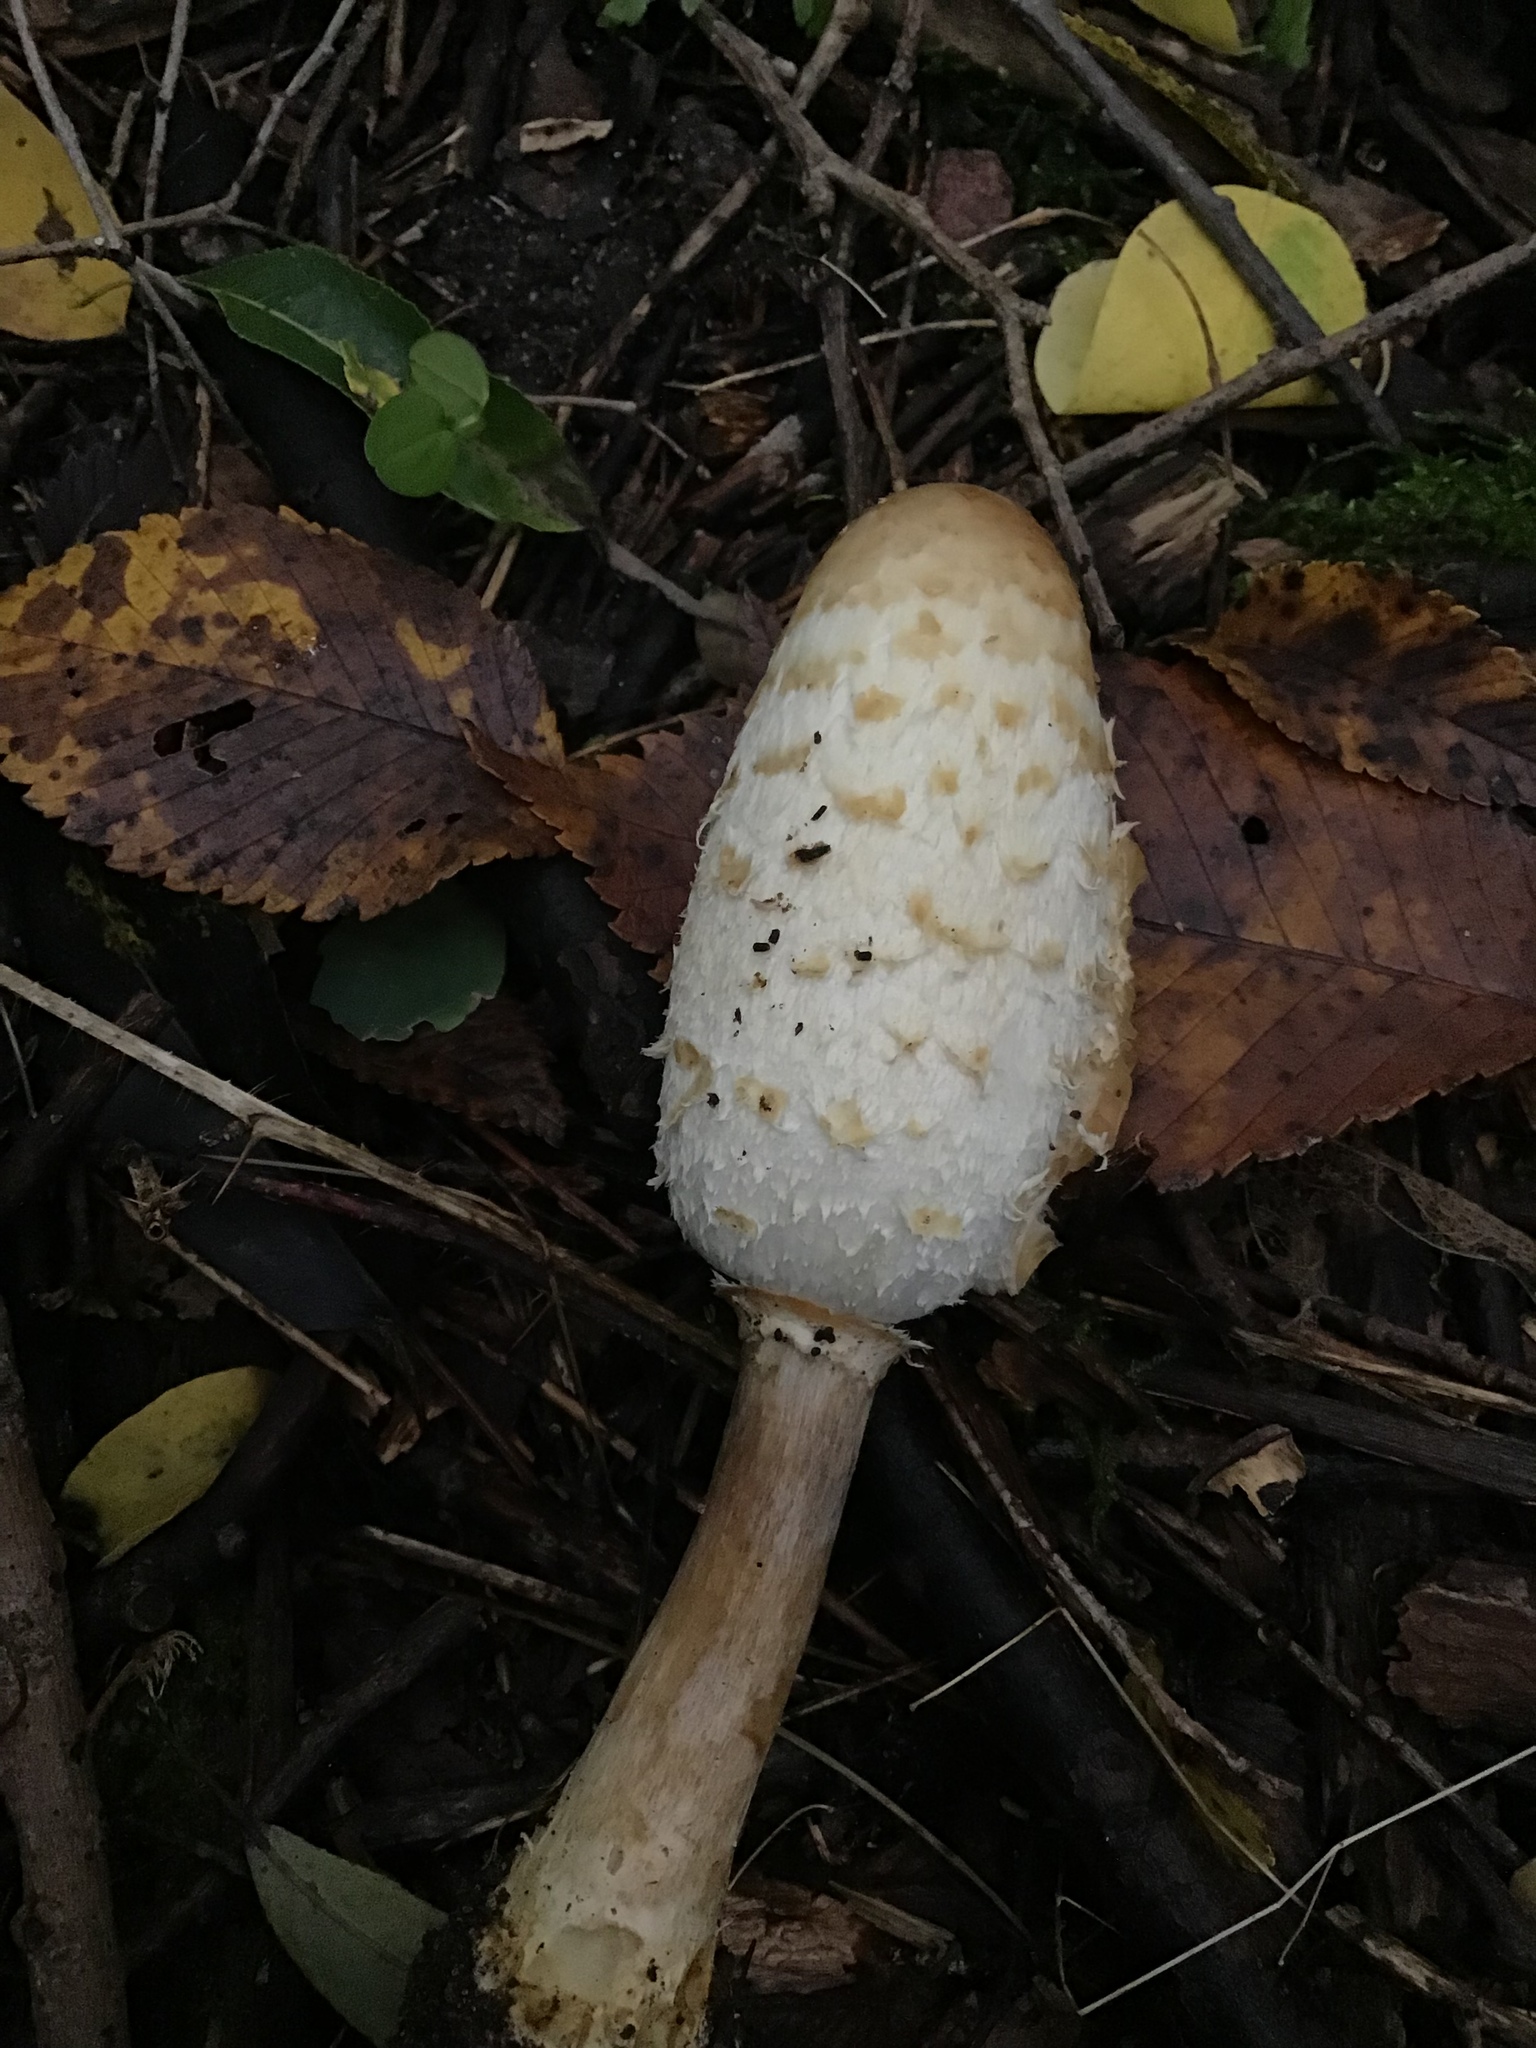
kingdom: Fungi
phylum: Basidiomycota
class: Agaricomycetes
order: Agaricales
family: Agaricaceae
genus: Coprinus
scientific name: Coprinus comatus
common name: Lawyer's wig
